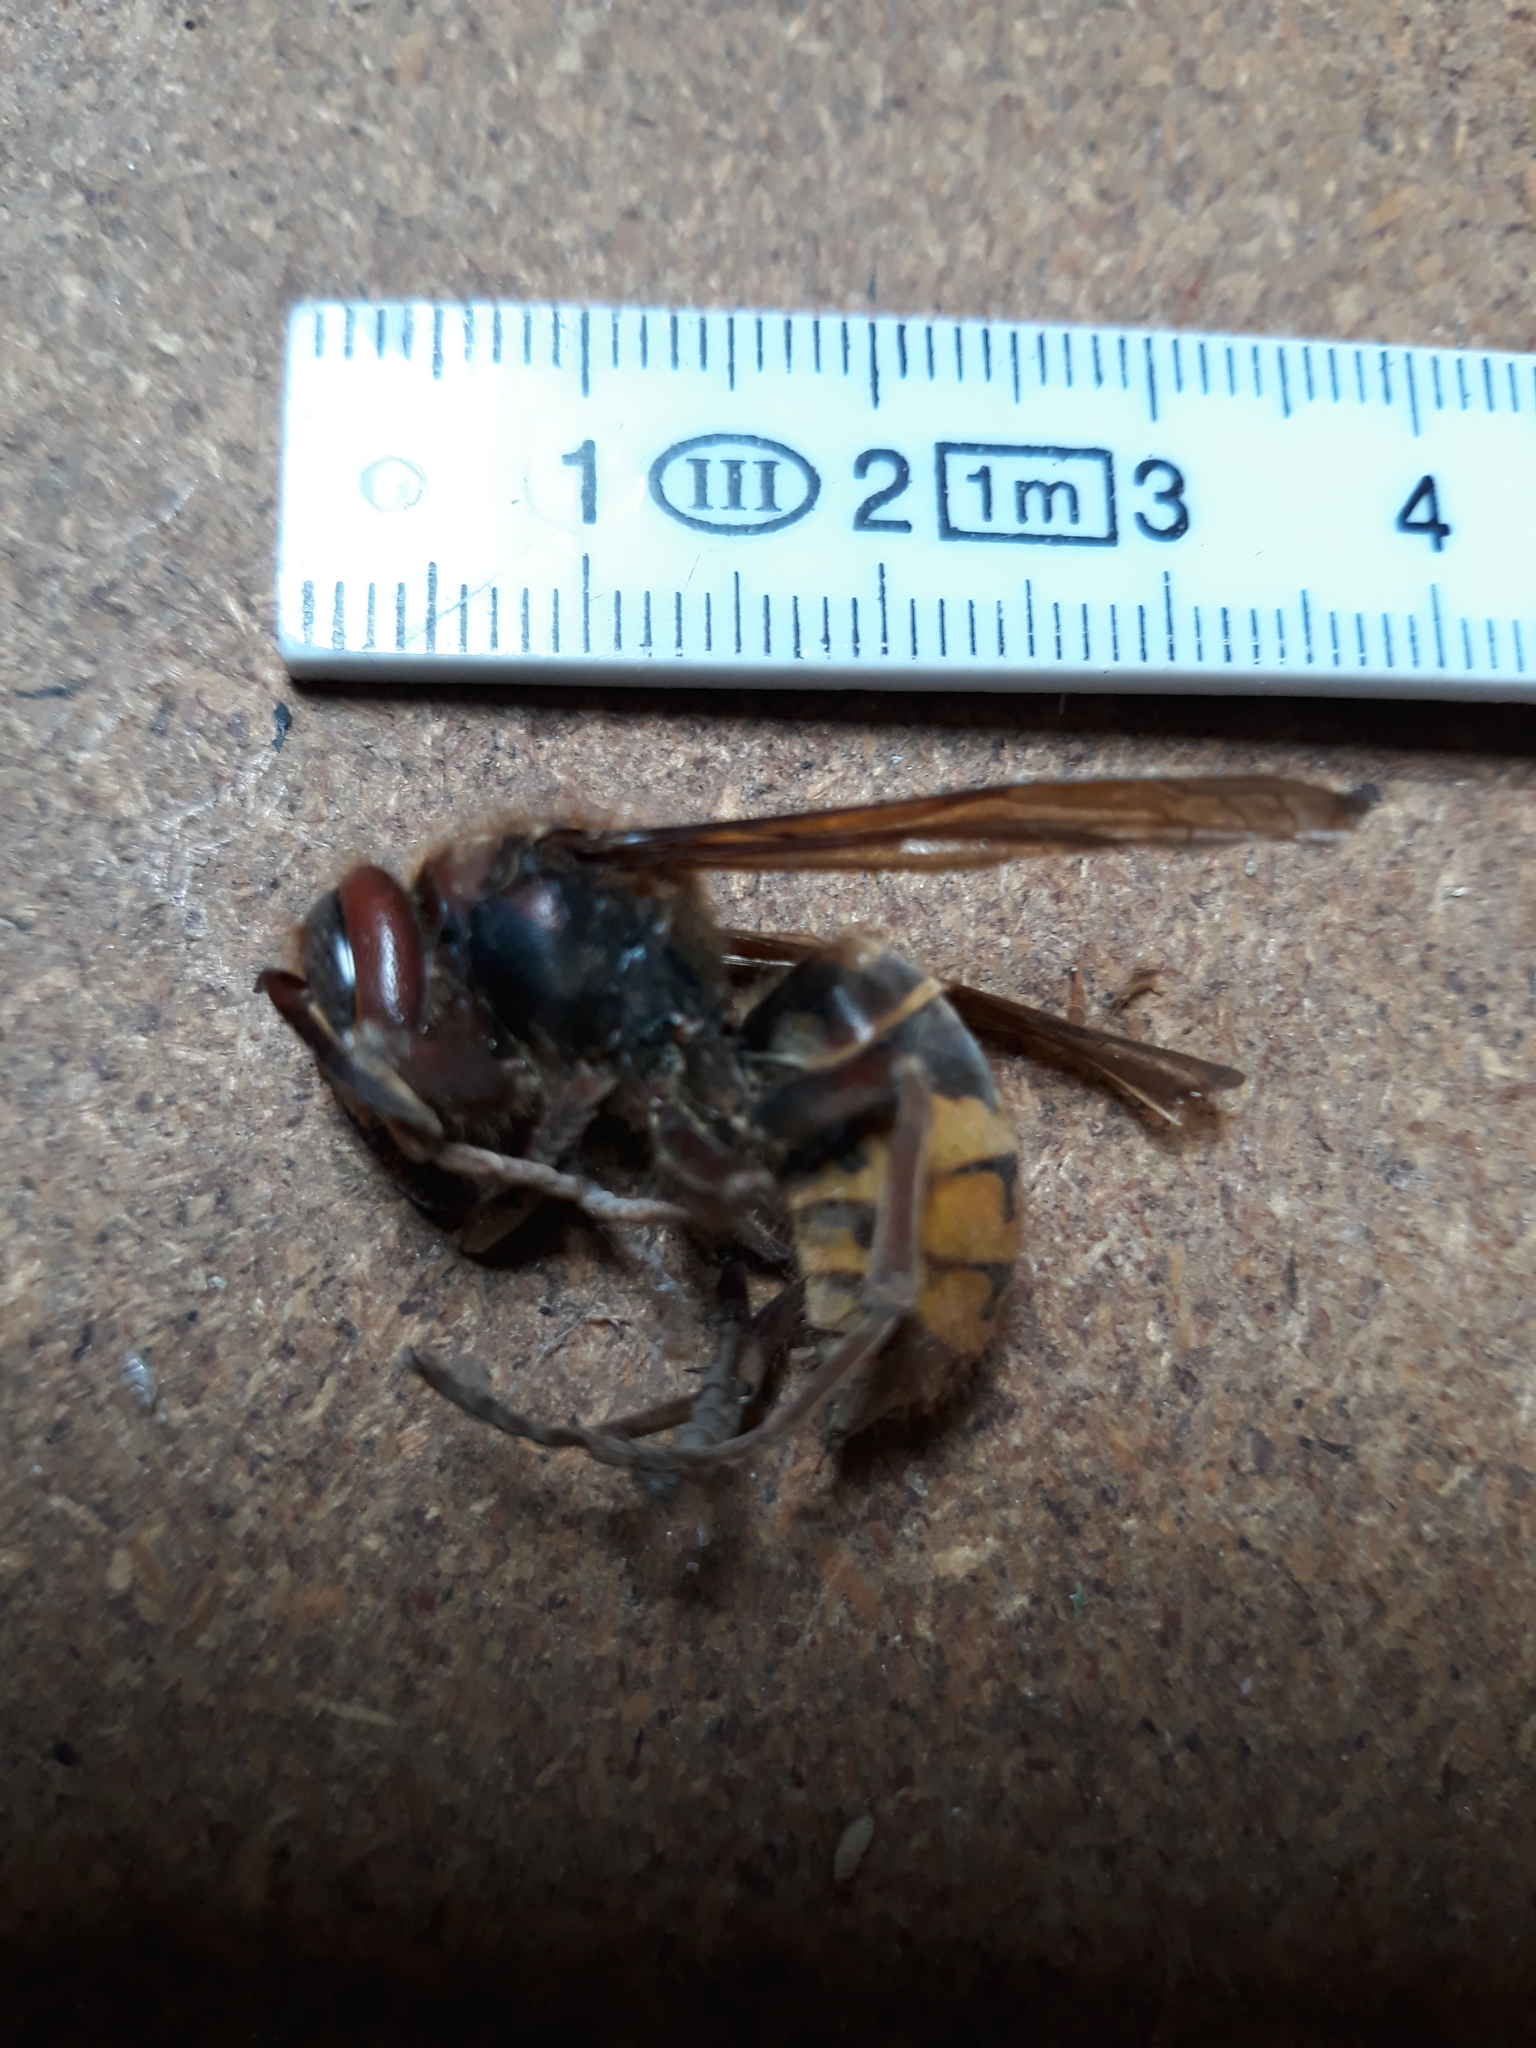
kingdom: Animalia
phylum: Arthropoda
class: Insecta
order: Hymenoptera
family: Vespidae
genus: Vespa
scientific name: Vespa crabro
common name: Hornet
